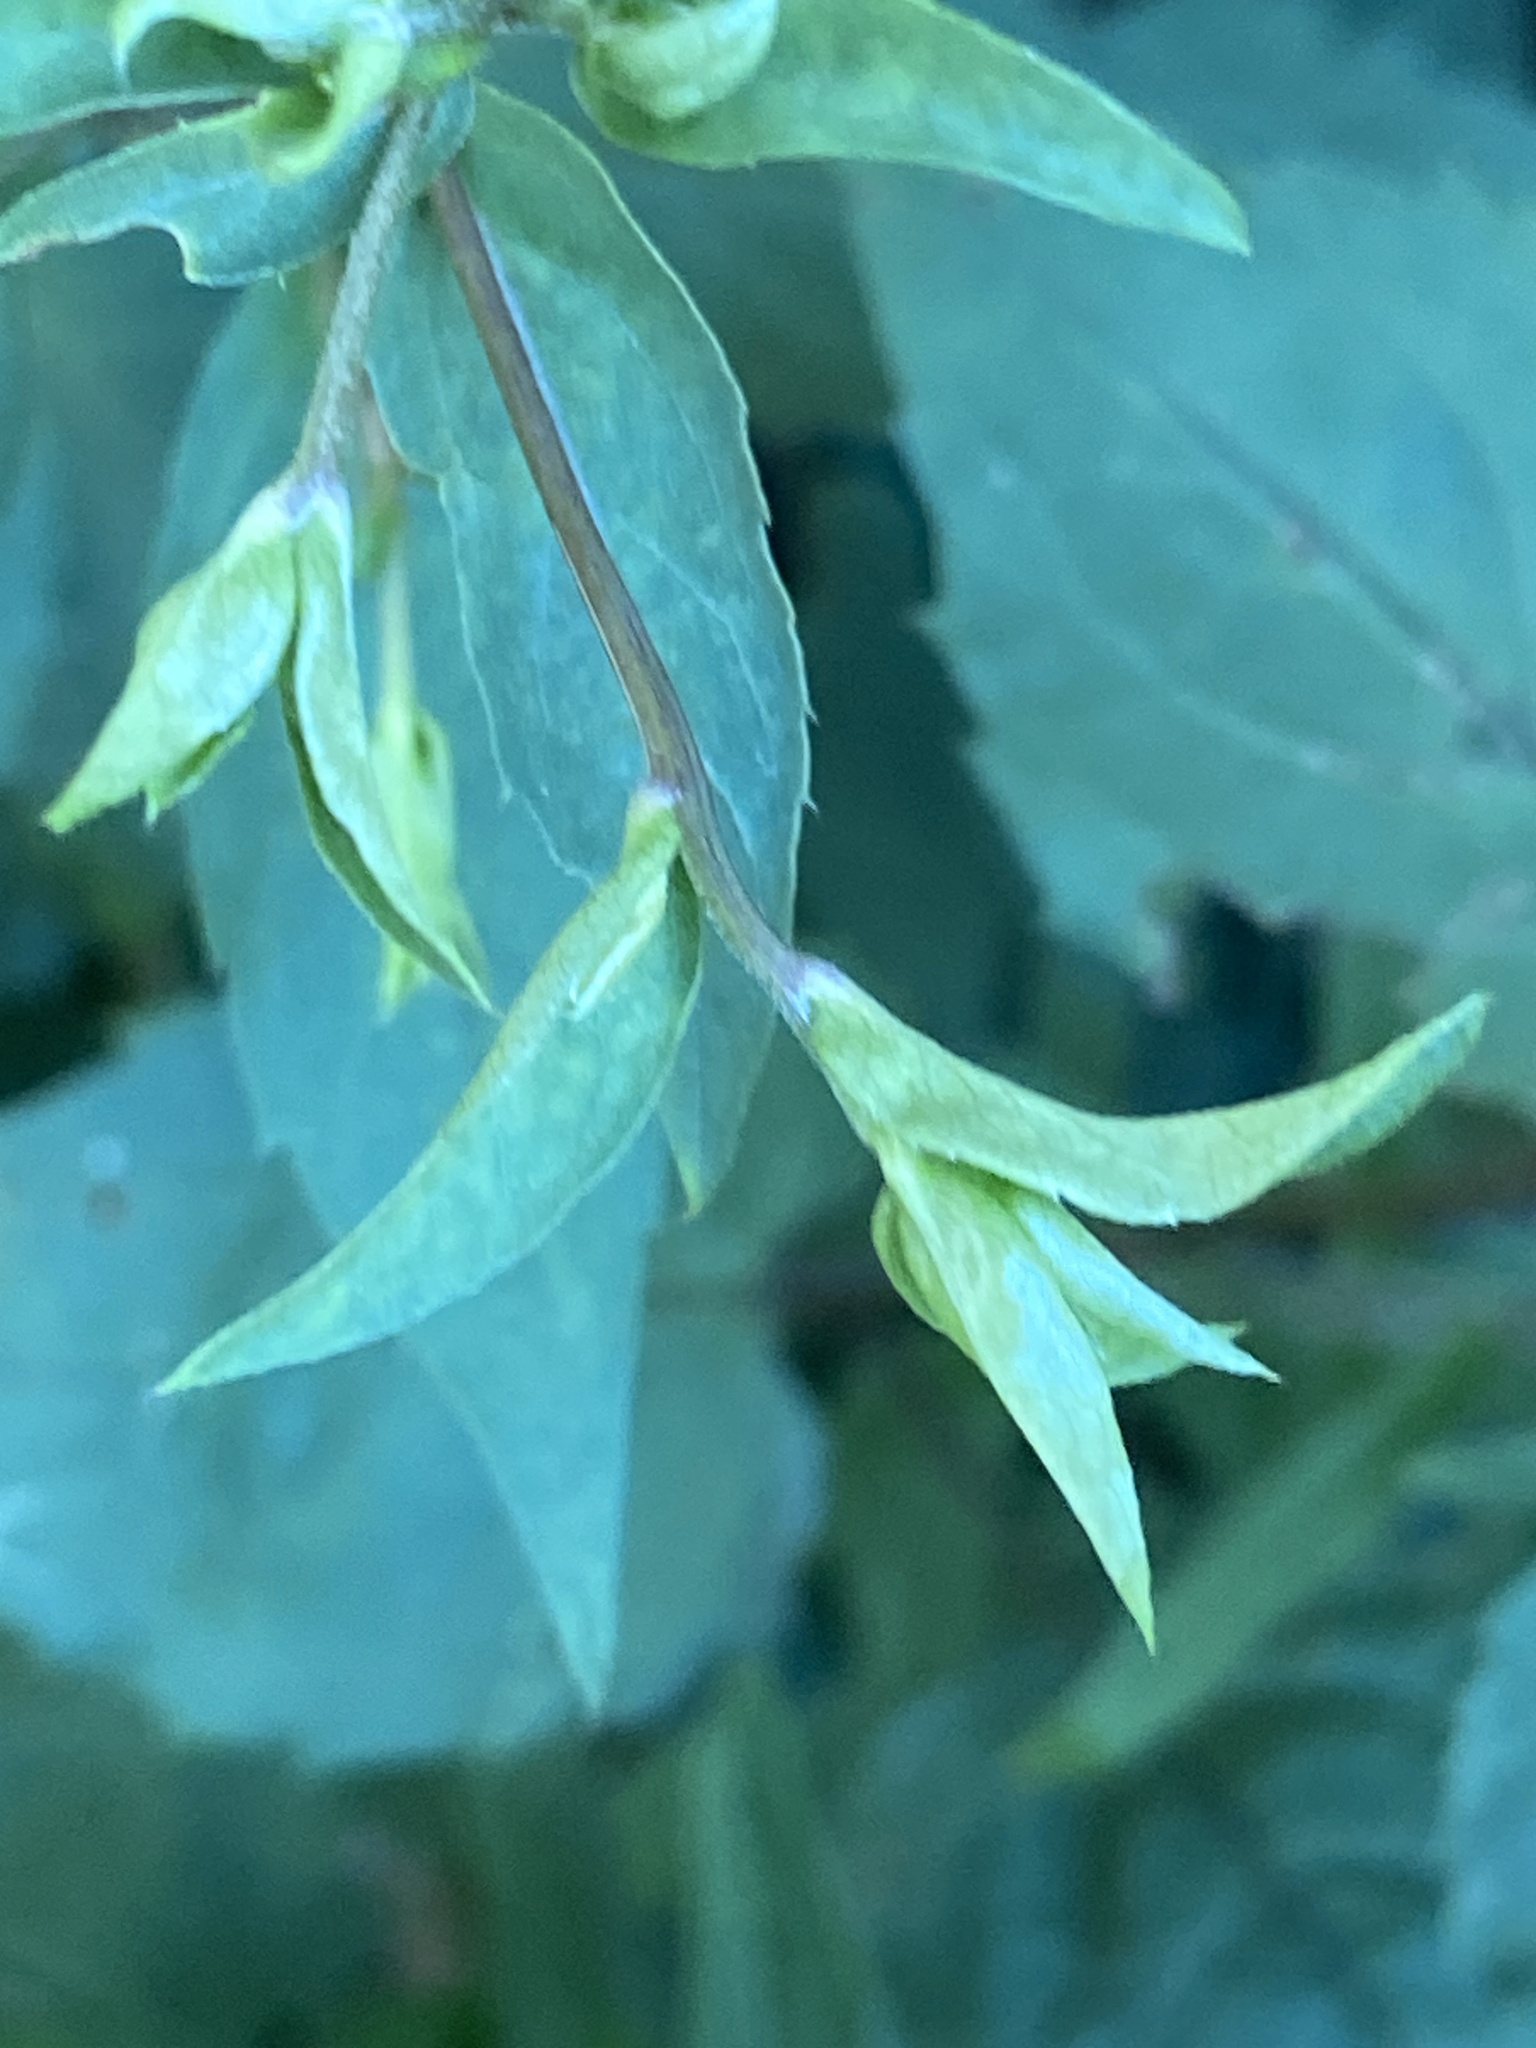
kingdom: Plantae
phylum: Tracheophyta
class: Magnoliopsida
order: Asterales
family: Asteraceae
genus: Eurybia
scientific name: Eurybia divaricata
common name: White wood aster
